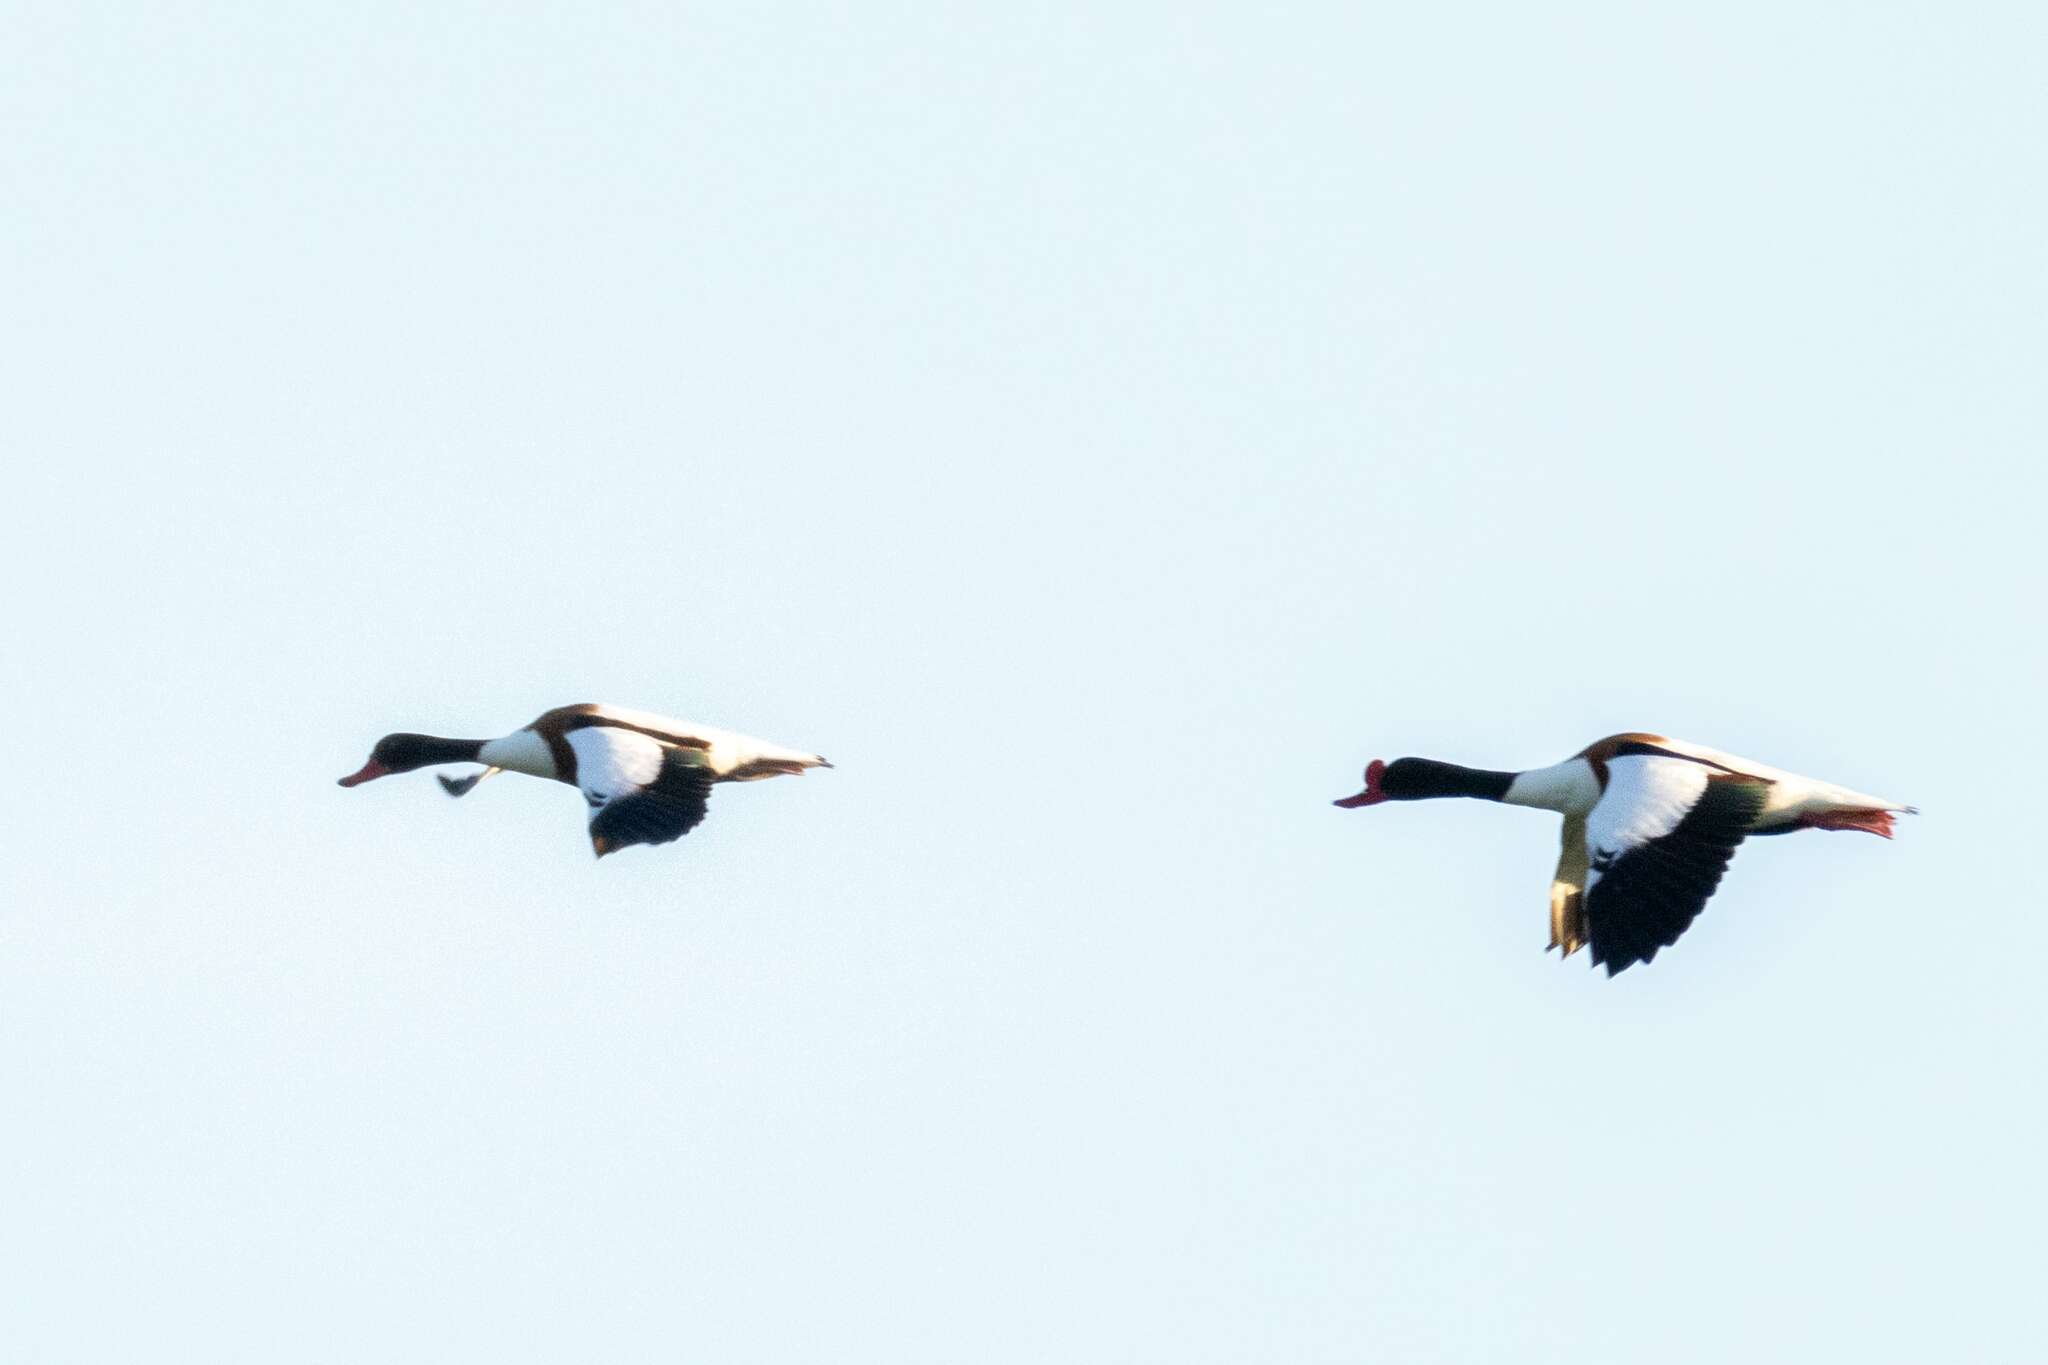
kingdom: Animalia
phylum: Chordata
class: Aves
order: Anseriformes
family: Anatidae
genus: Tadorna
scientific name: Tadorna tadorna
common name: Common shelduck
